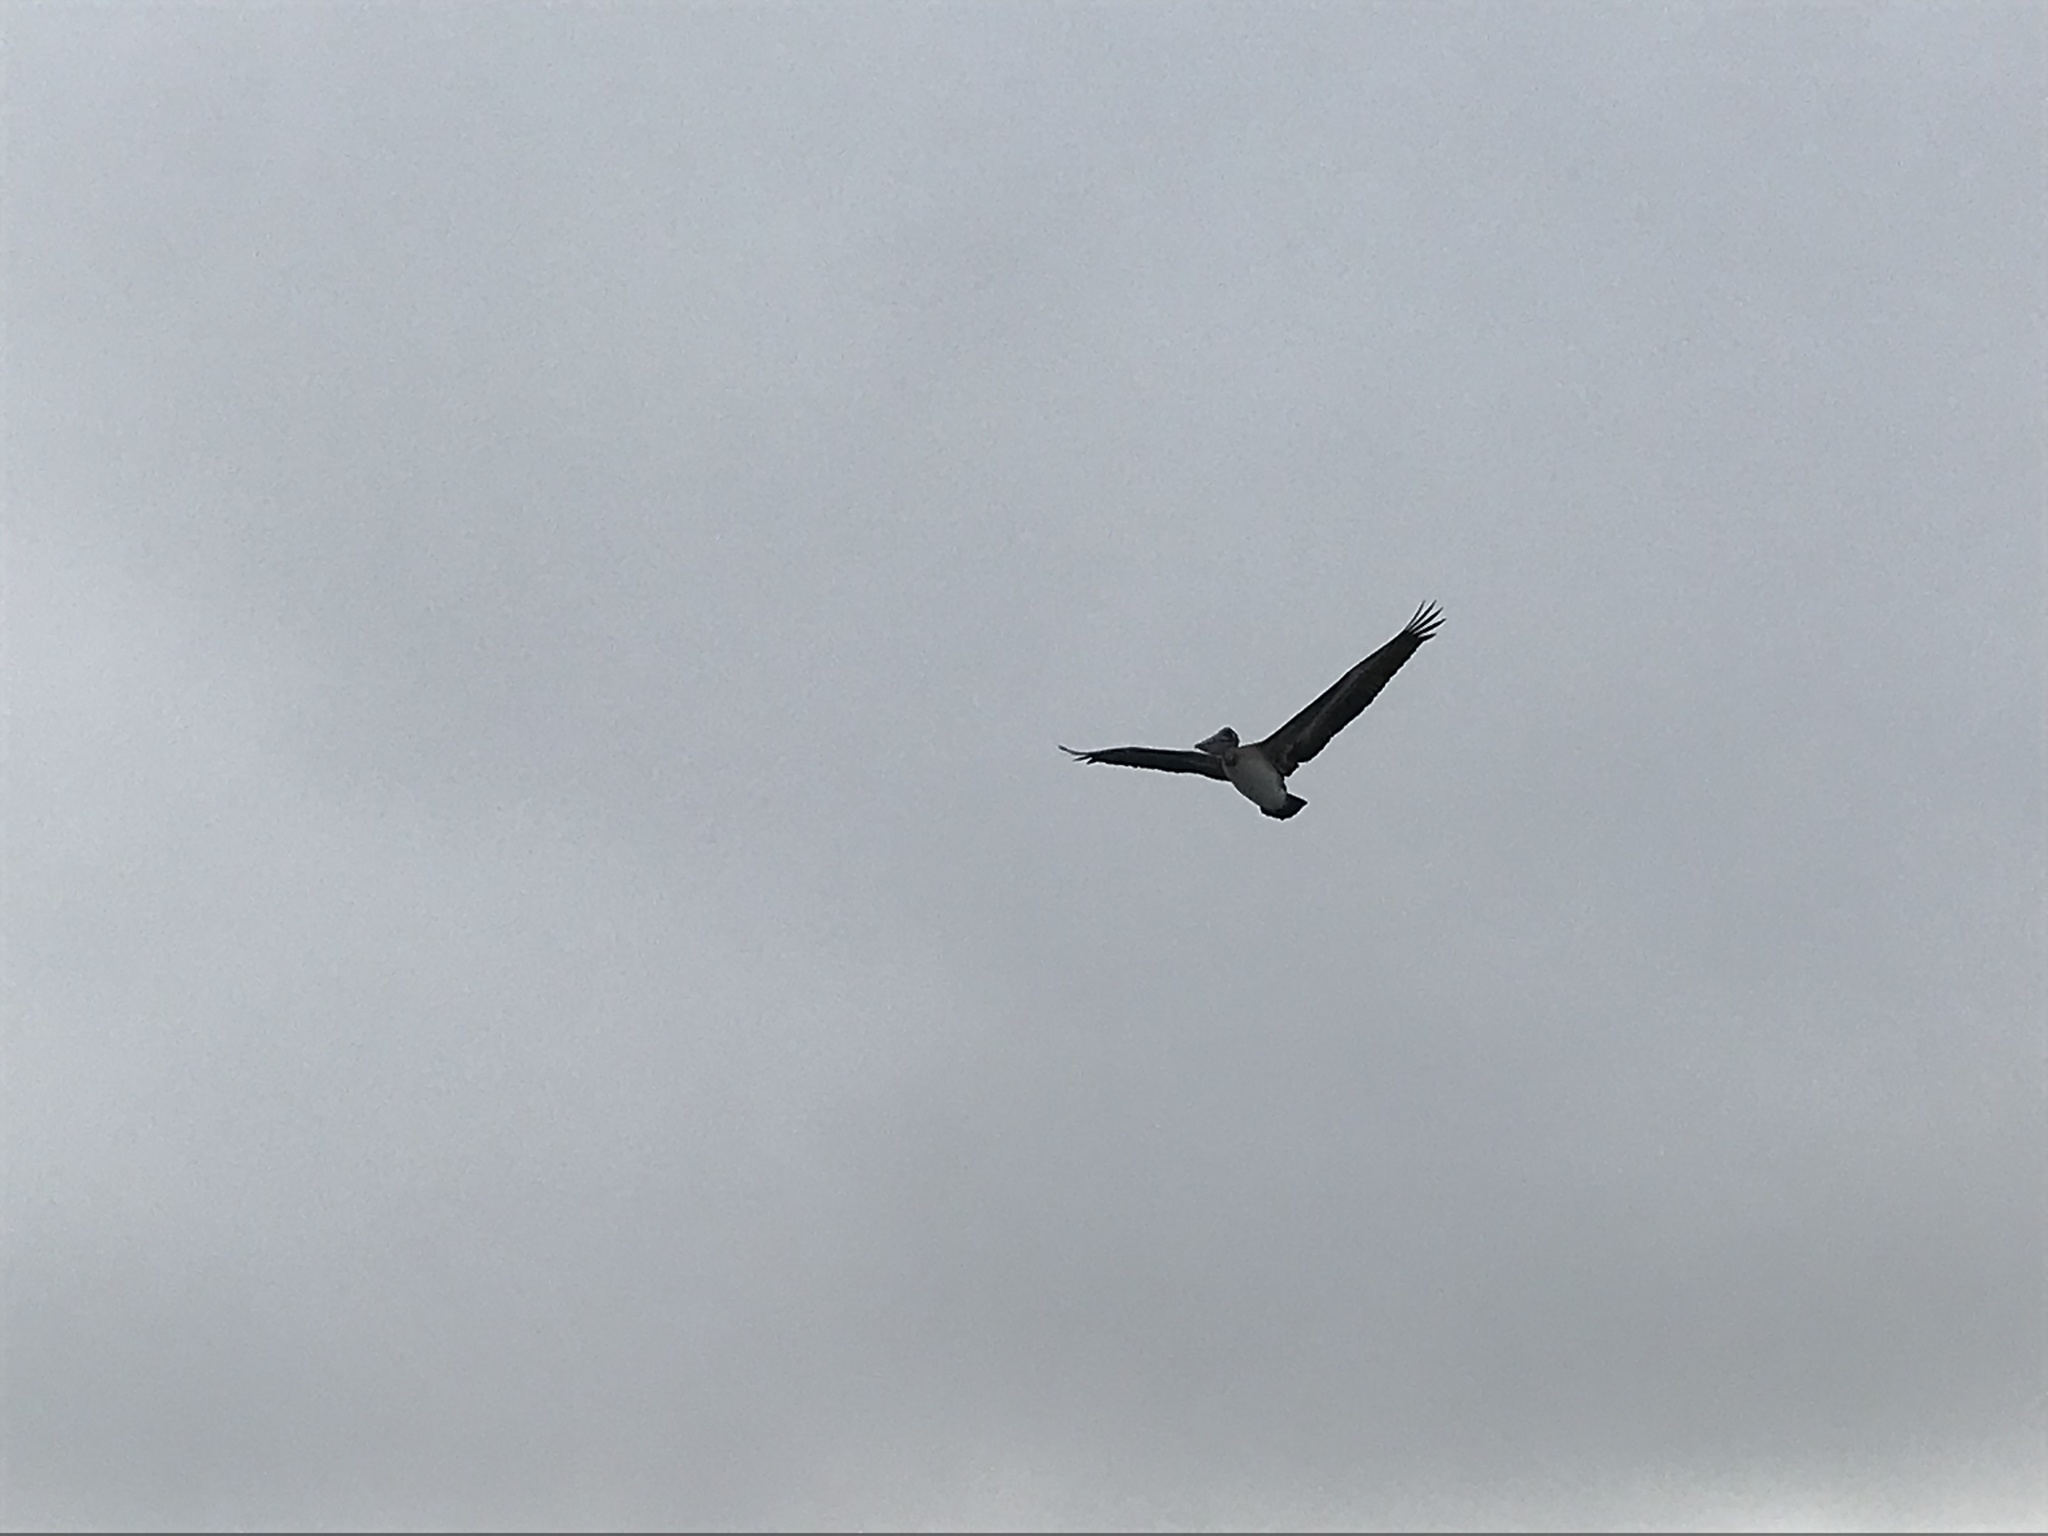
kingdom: Animalia
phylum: Chordata
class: Aves
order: Pelecaniformes
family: Pelecanidae
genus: Pelecanus
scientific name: Pelecanus occidentalis
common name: Brown pelican
